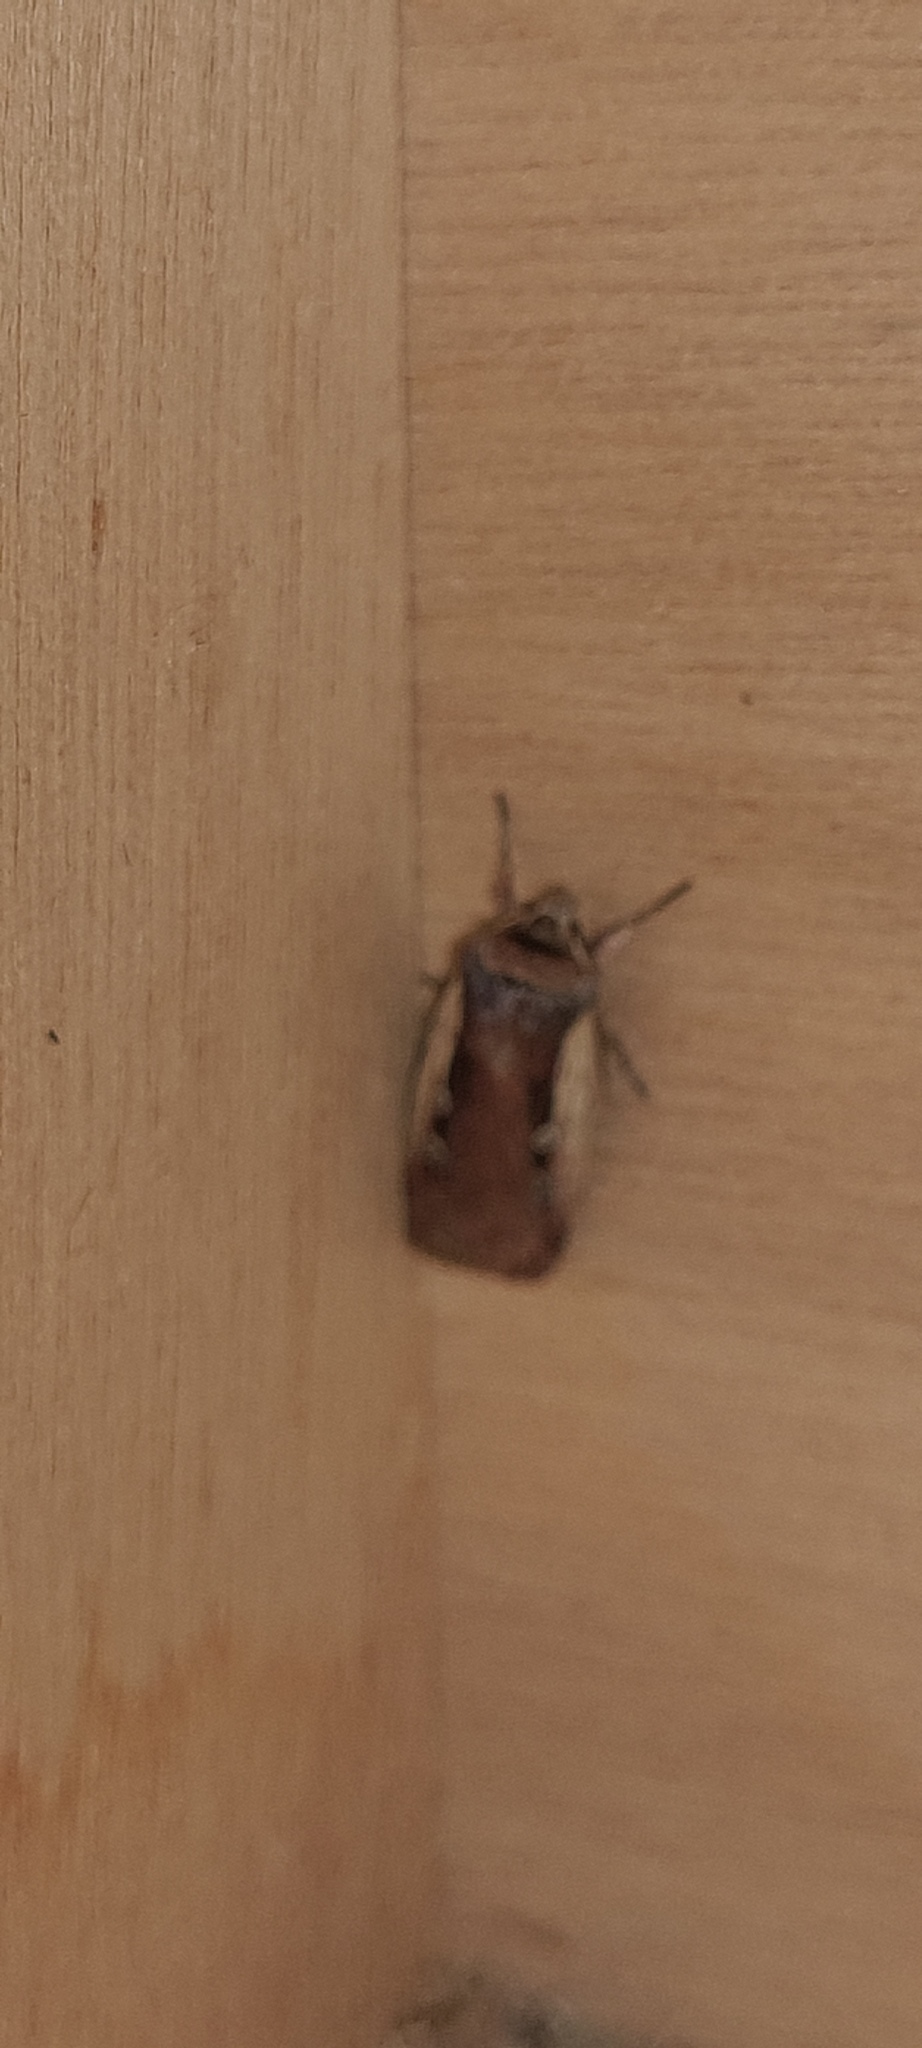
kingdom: Animalia
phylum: Arthropoda
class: Insecta
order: Lepidoptera
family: Noctuidae
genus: Ochropleura
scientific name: Ochropleura plecta
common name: Flame shoulder
